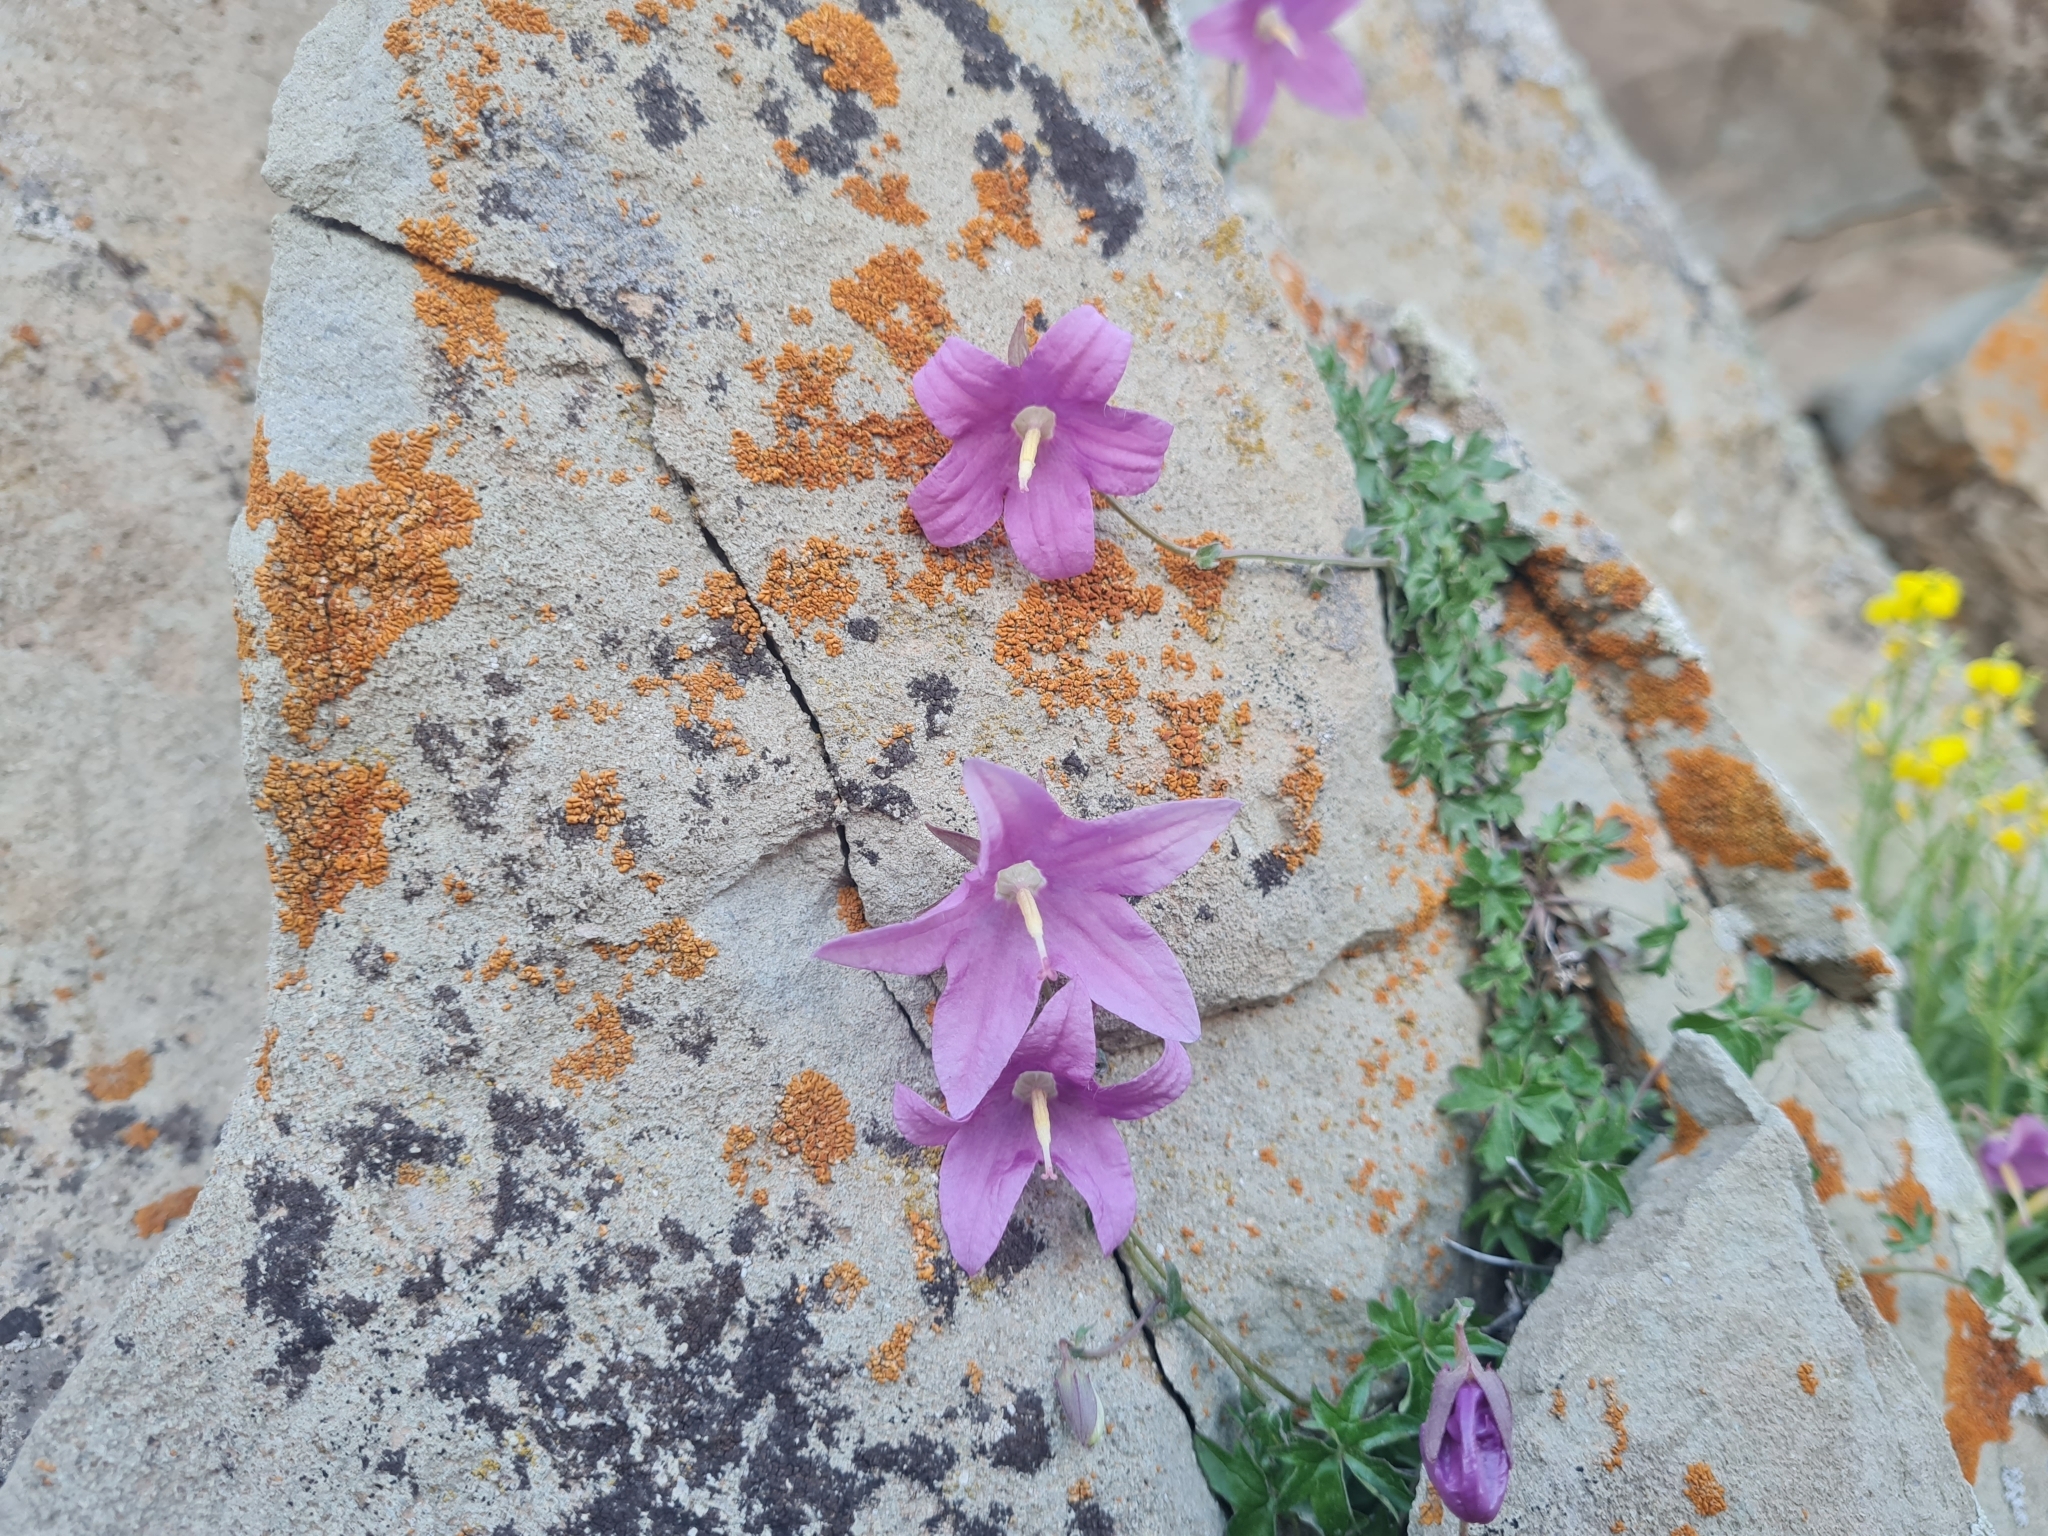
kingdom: Plantae
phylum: Tracheophyta
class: Magnoliopsida
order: Asterales
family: Campanulaceae
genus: Campanula
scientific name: Campanula zangezura
